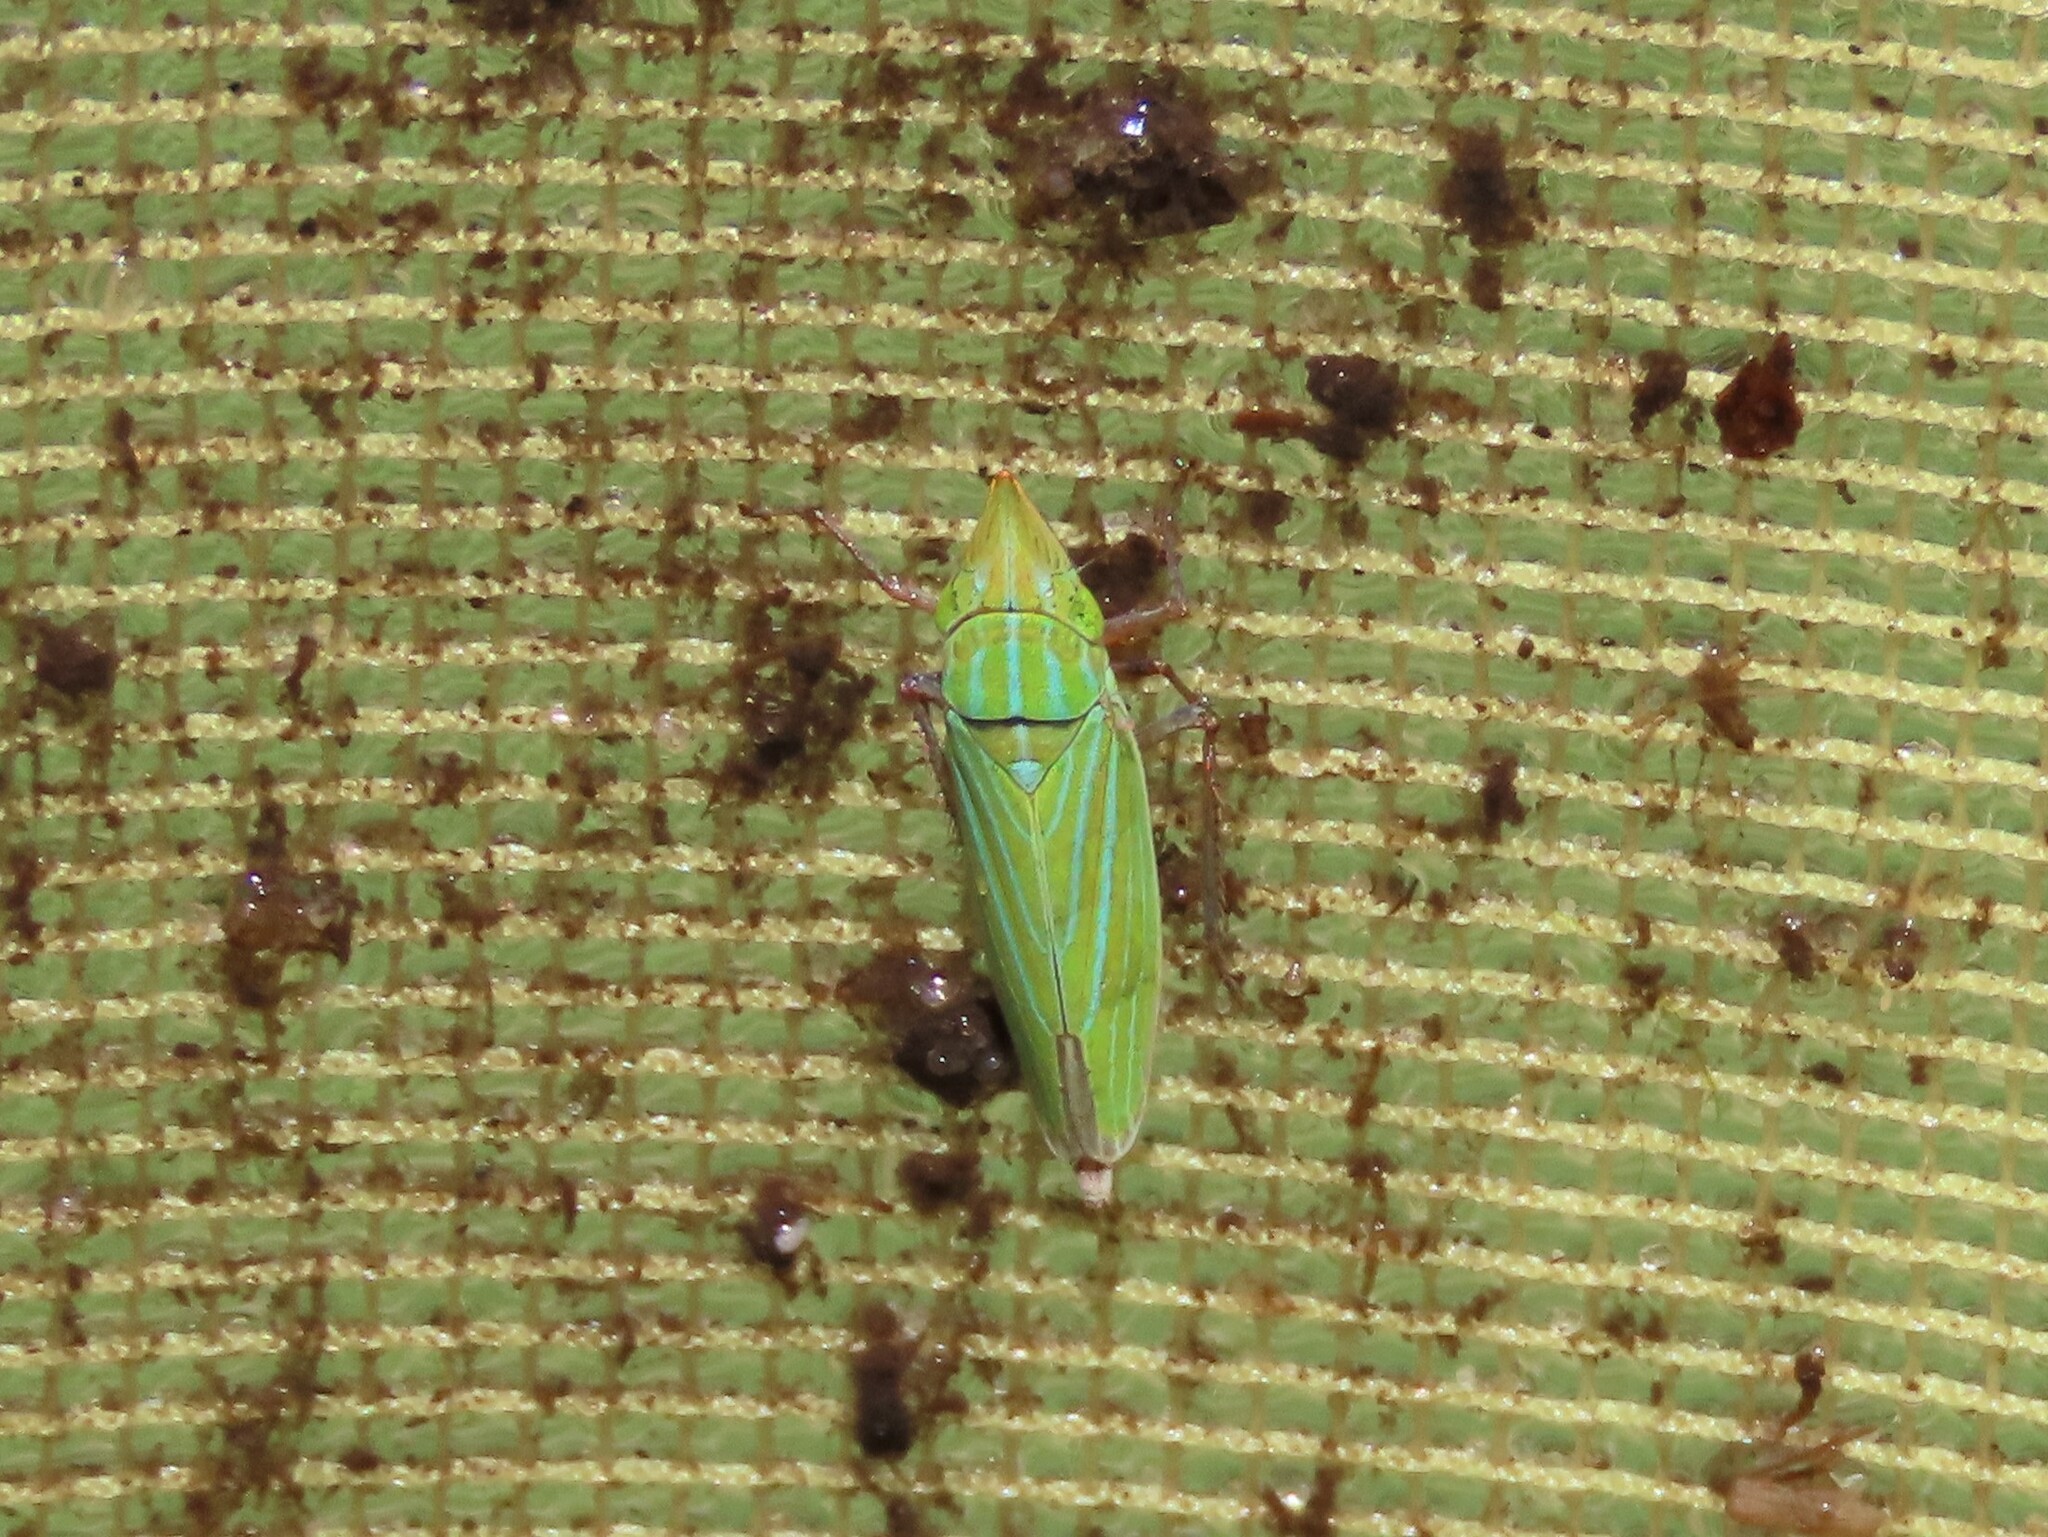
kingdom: Animalia
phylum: Arthropoda
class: Insecta
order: Hemiptera
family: Cicadellidae
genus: Draeculacephala
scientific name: Draeculacephala producta
